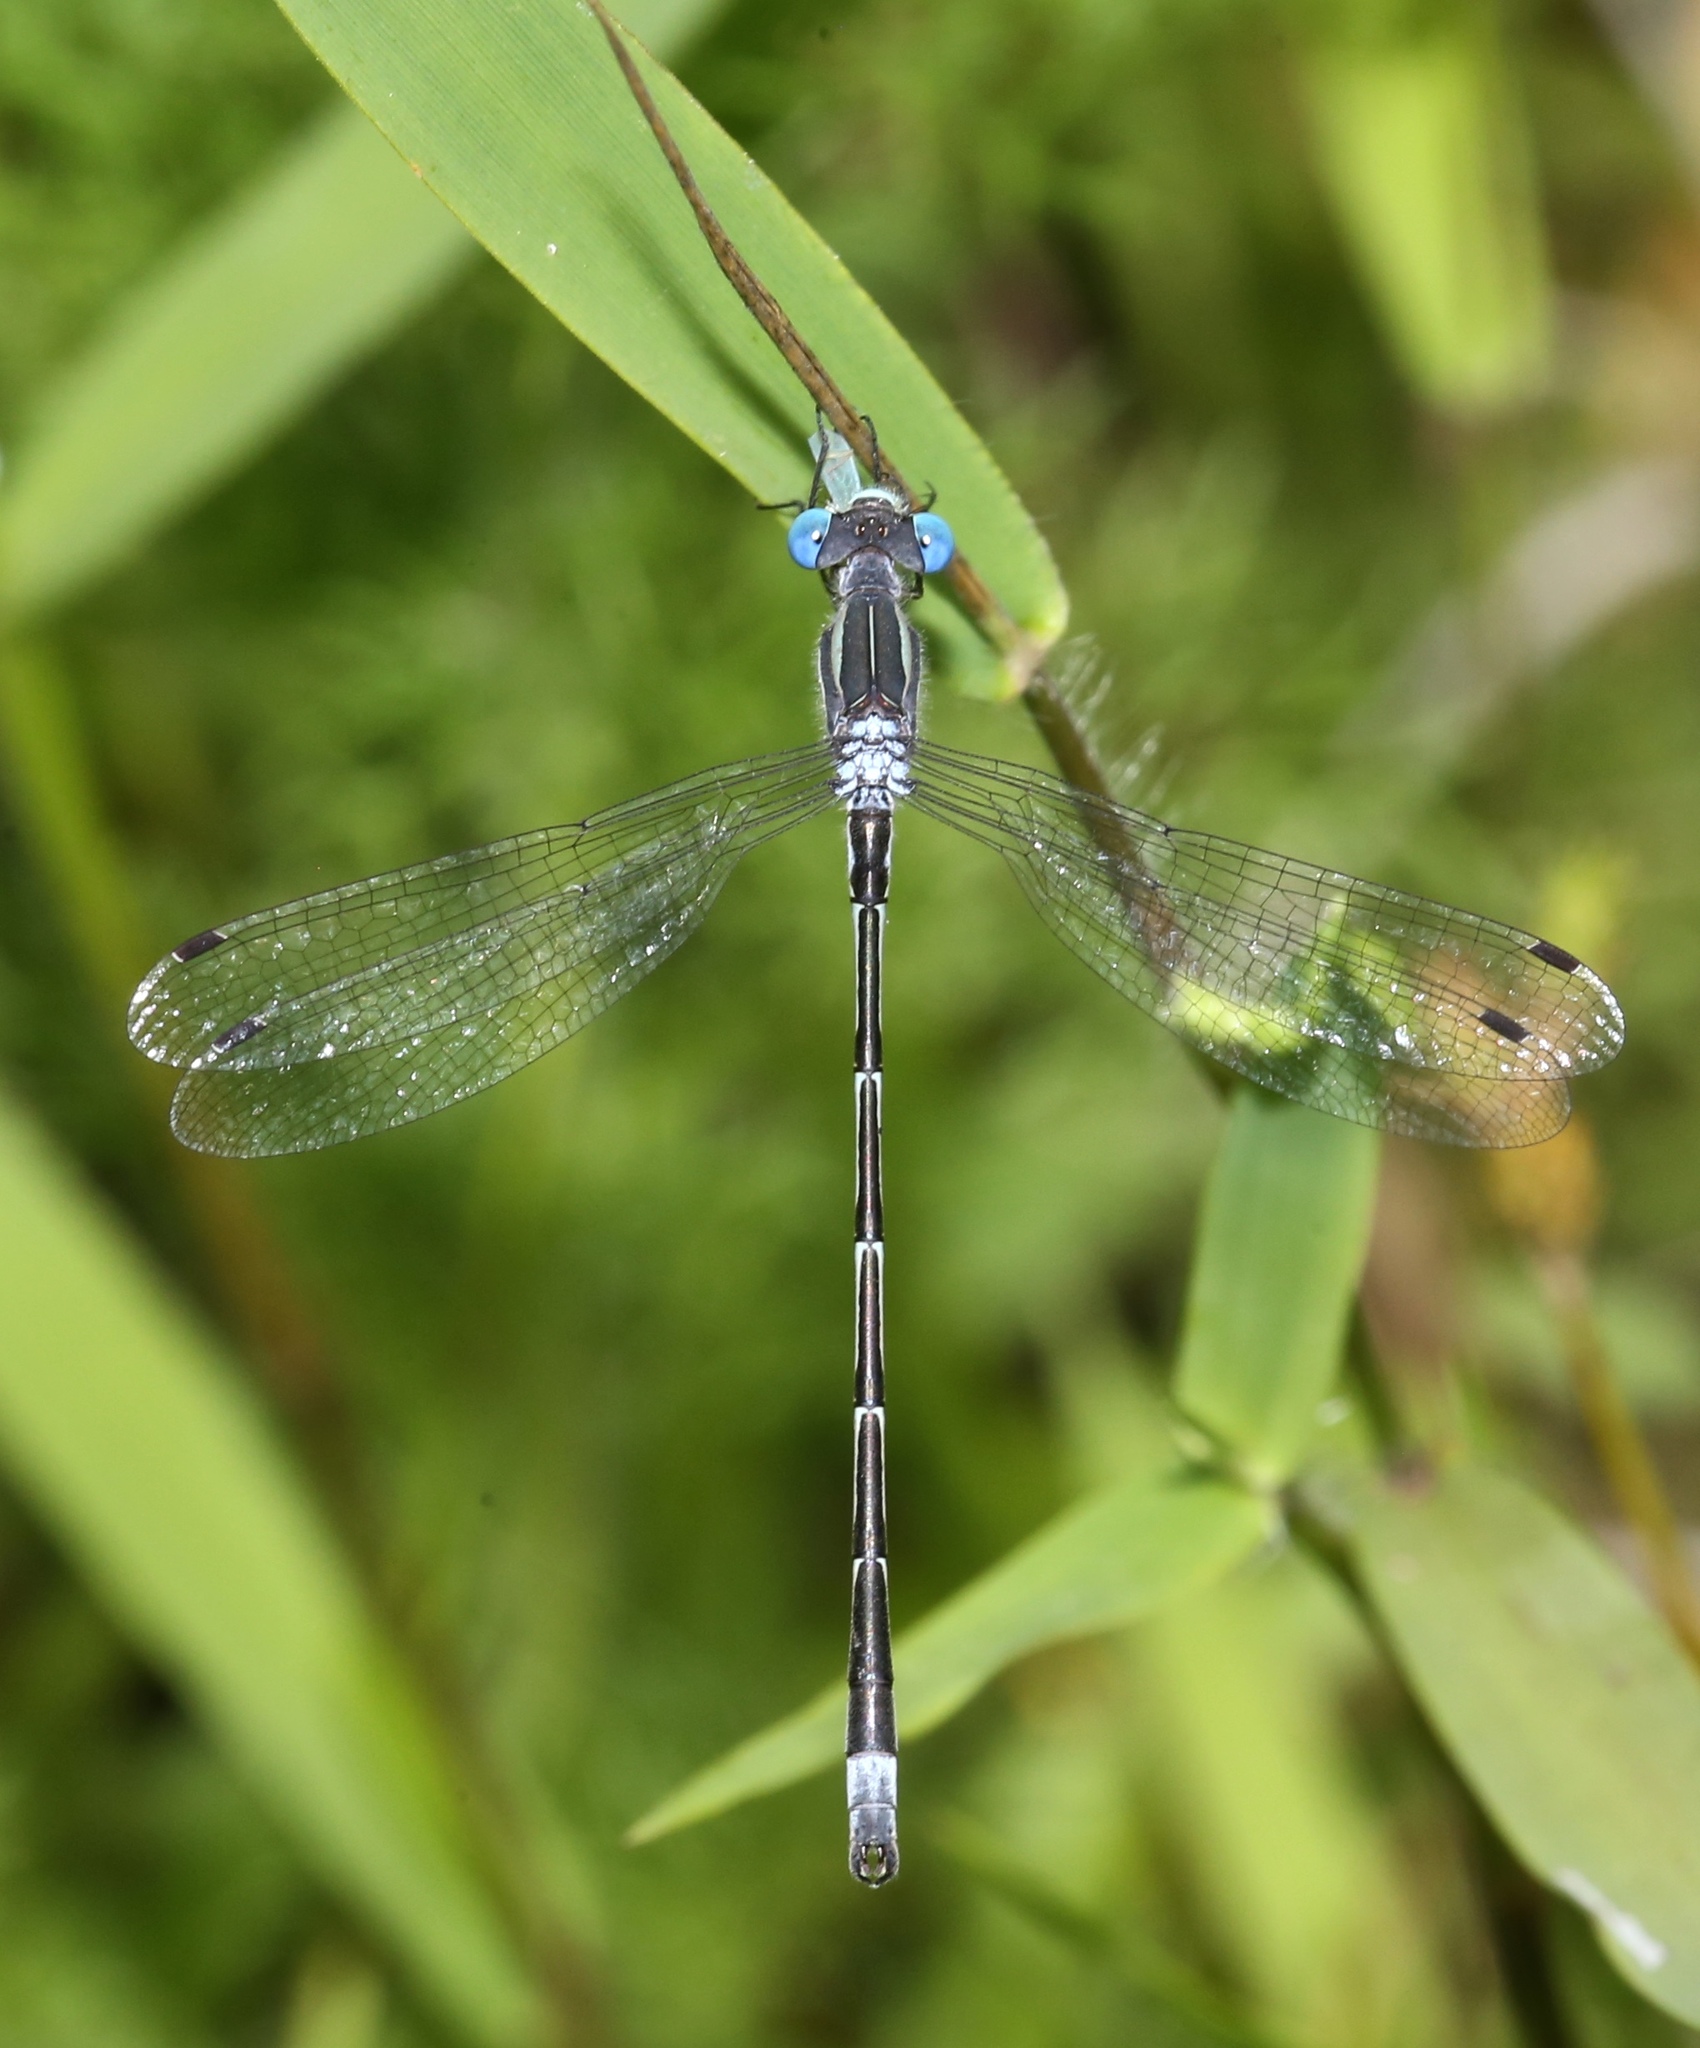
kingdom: Animalia
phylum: Arthropoda
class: Insecta
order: Odonata
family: Lestidae
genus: Lestes
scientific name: Lestes australis
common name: Southern spreadwing
